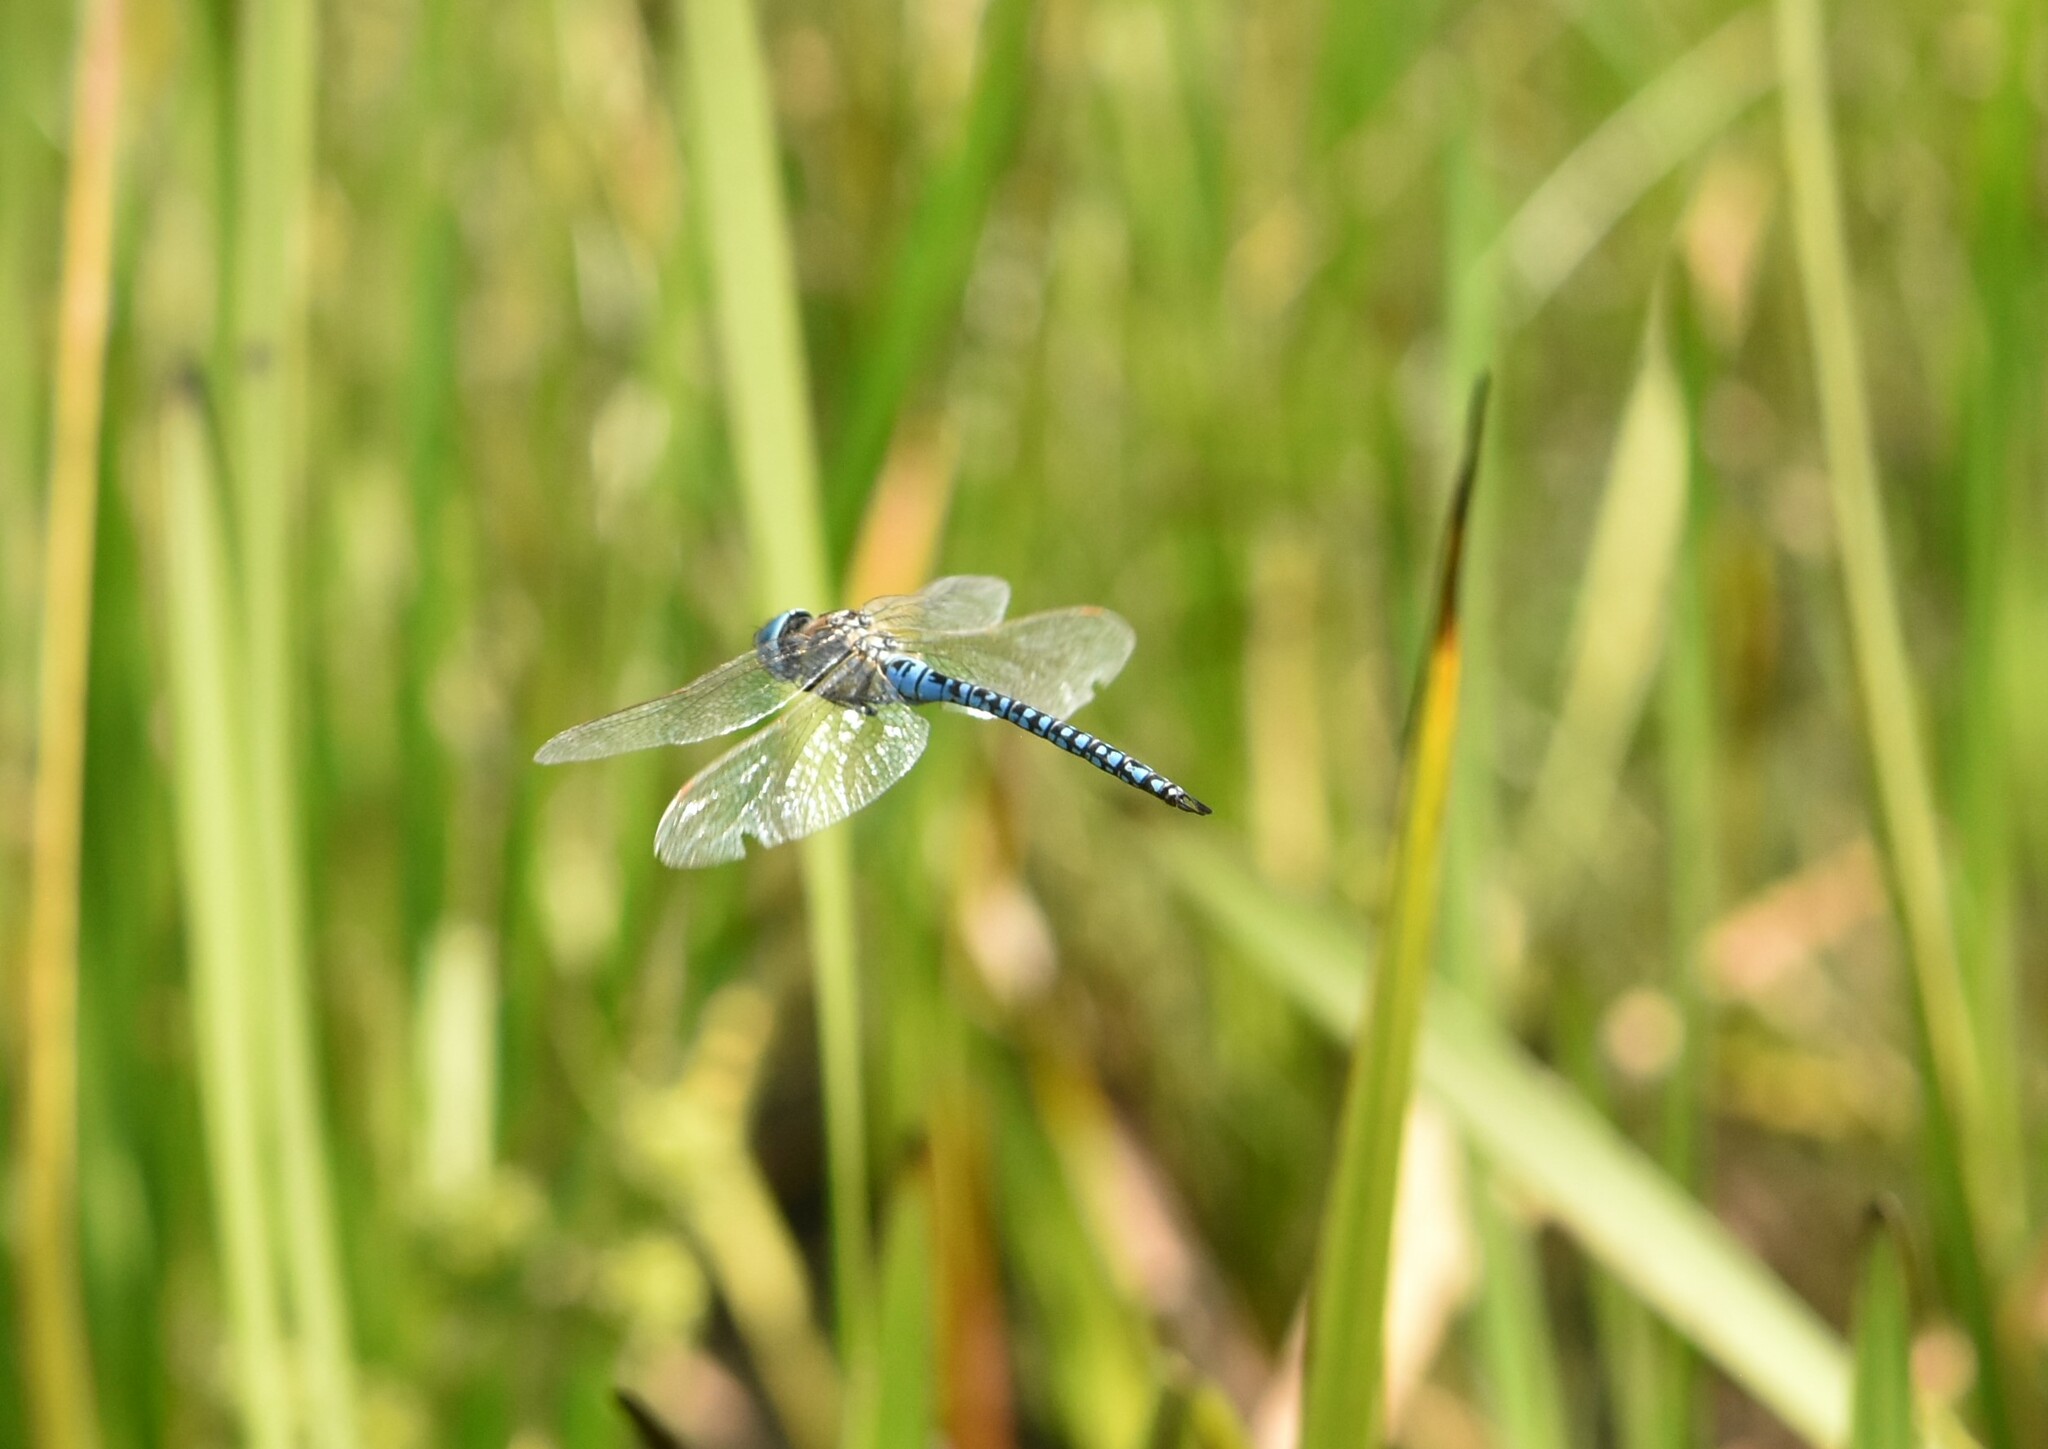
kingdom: Animalia
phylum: Arthropoda
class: Insecta
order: Odonata
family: Aeshnidae
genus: Aeshna
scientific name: Aeshna soneharai
